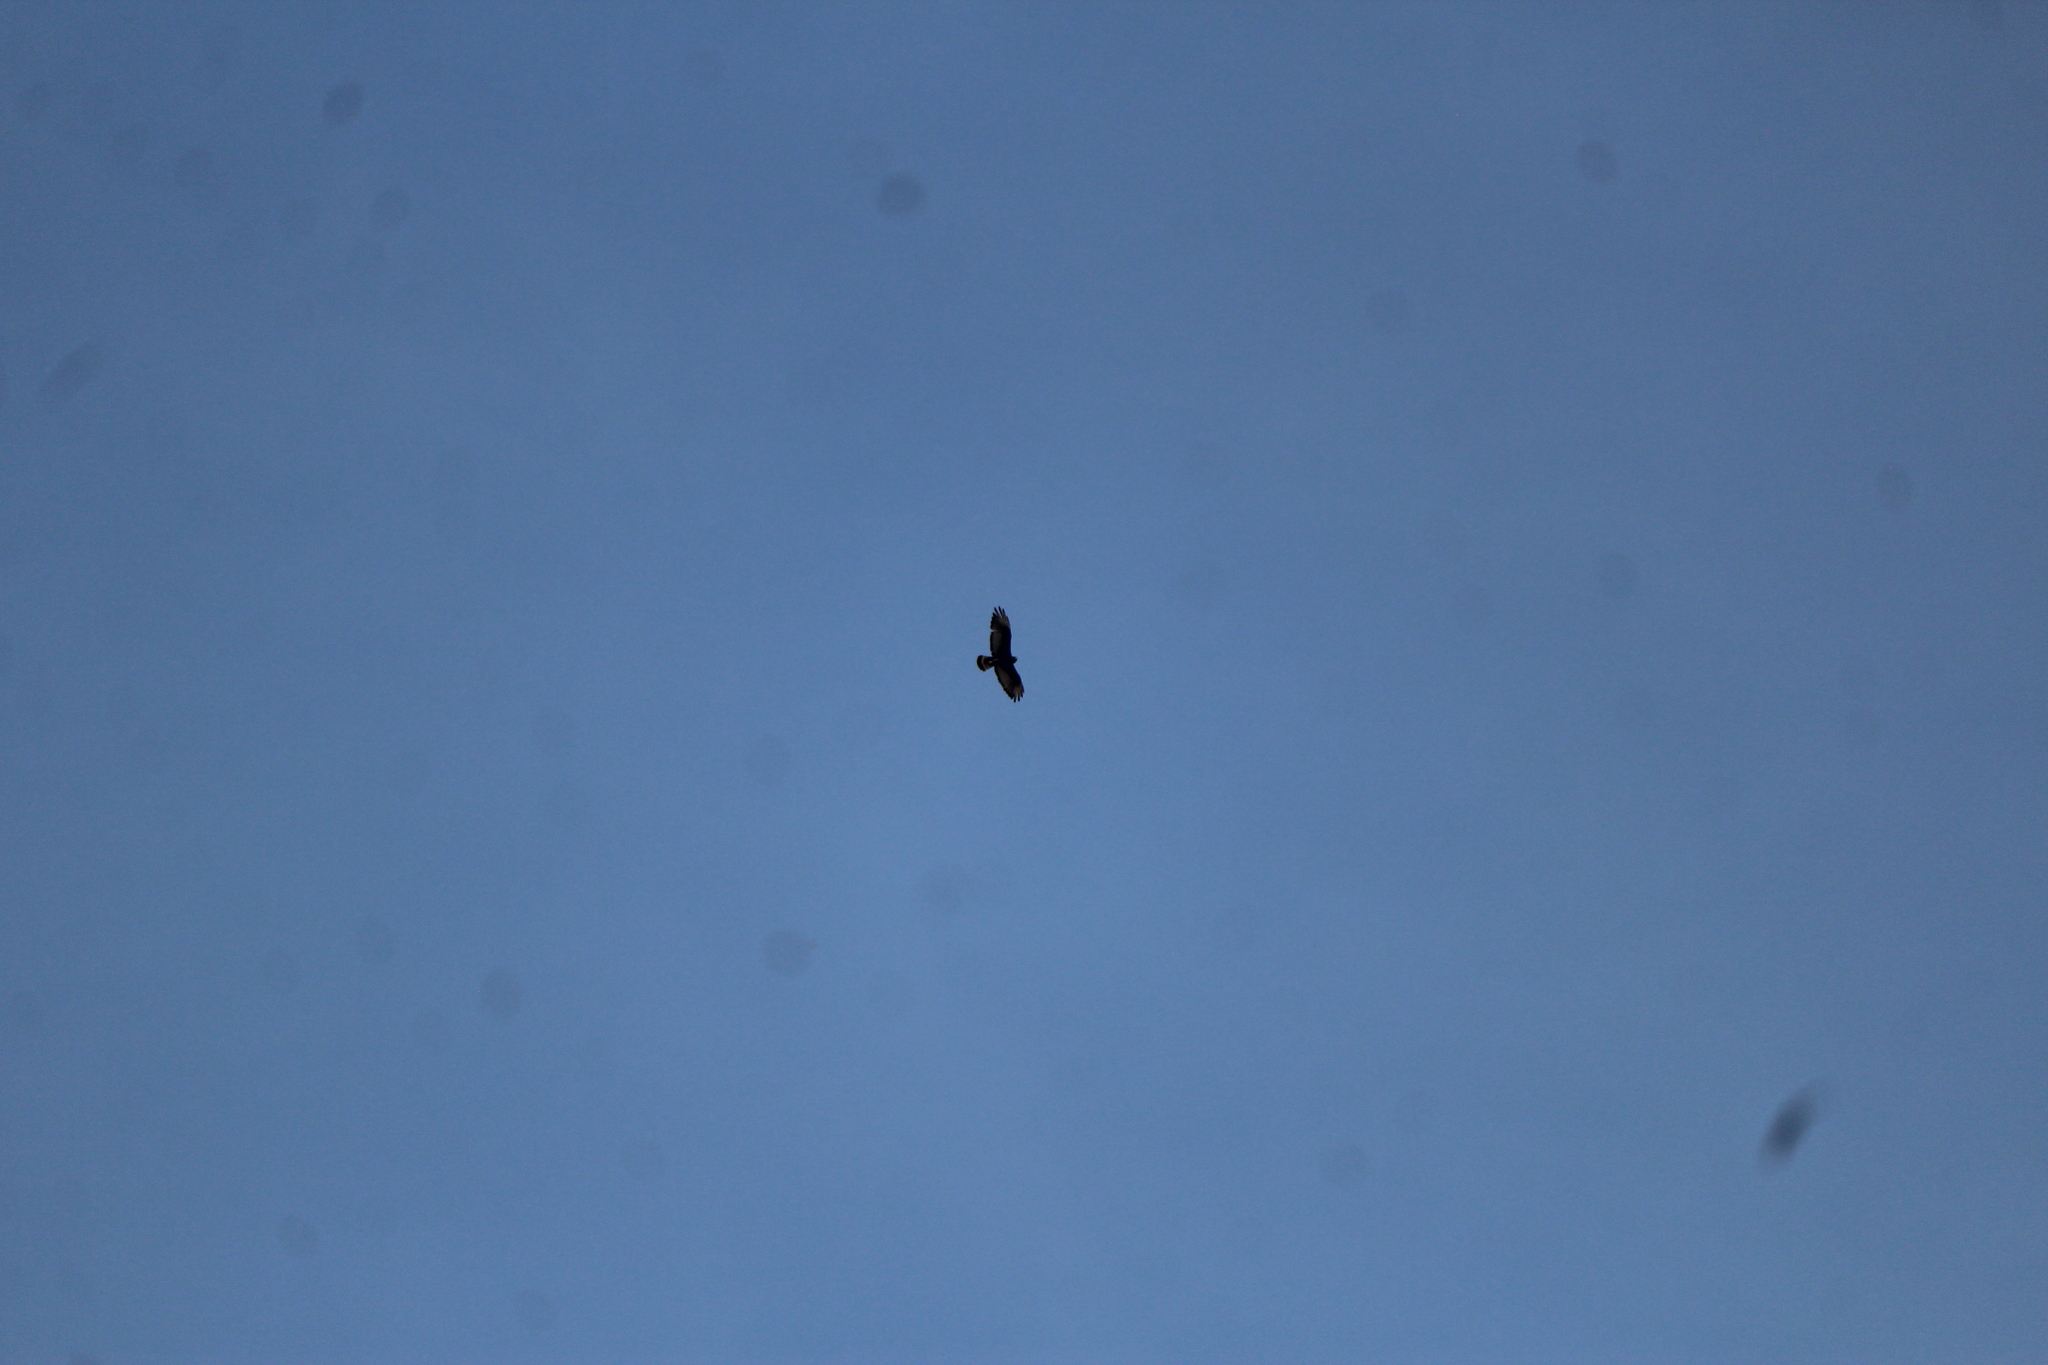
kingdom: Animalia
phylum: Chordata
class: Aves
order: Accipitriformes
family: Accipitridae
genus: Buteo
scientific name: Buteo albonotatus
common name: Zone-tailed hawk
